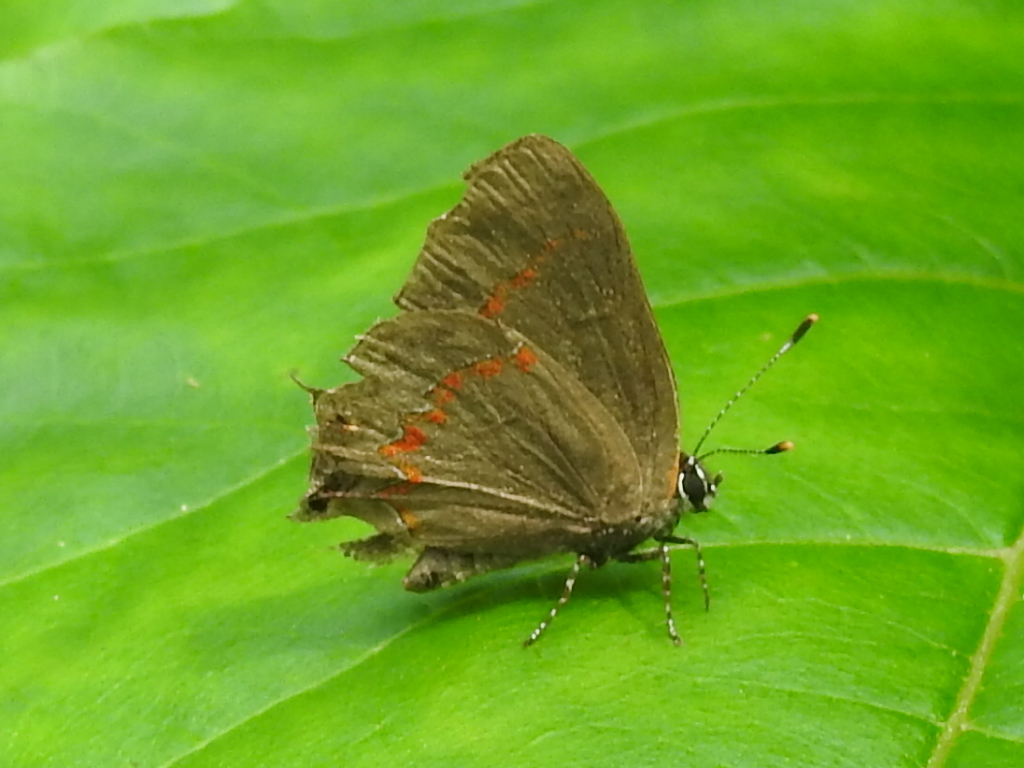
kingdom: Animalia
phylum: Arthropoda
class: Insecta
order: Lepidoptera
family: Lycaenidae
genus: Calycopis
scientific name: Calycopis cecrops
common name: Red-banded hairstreak
